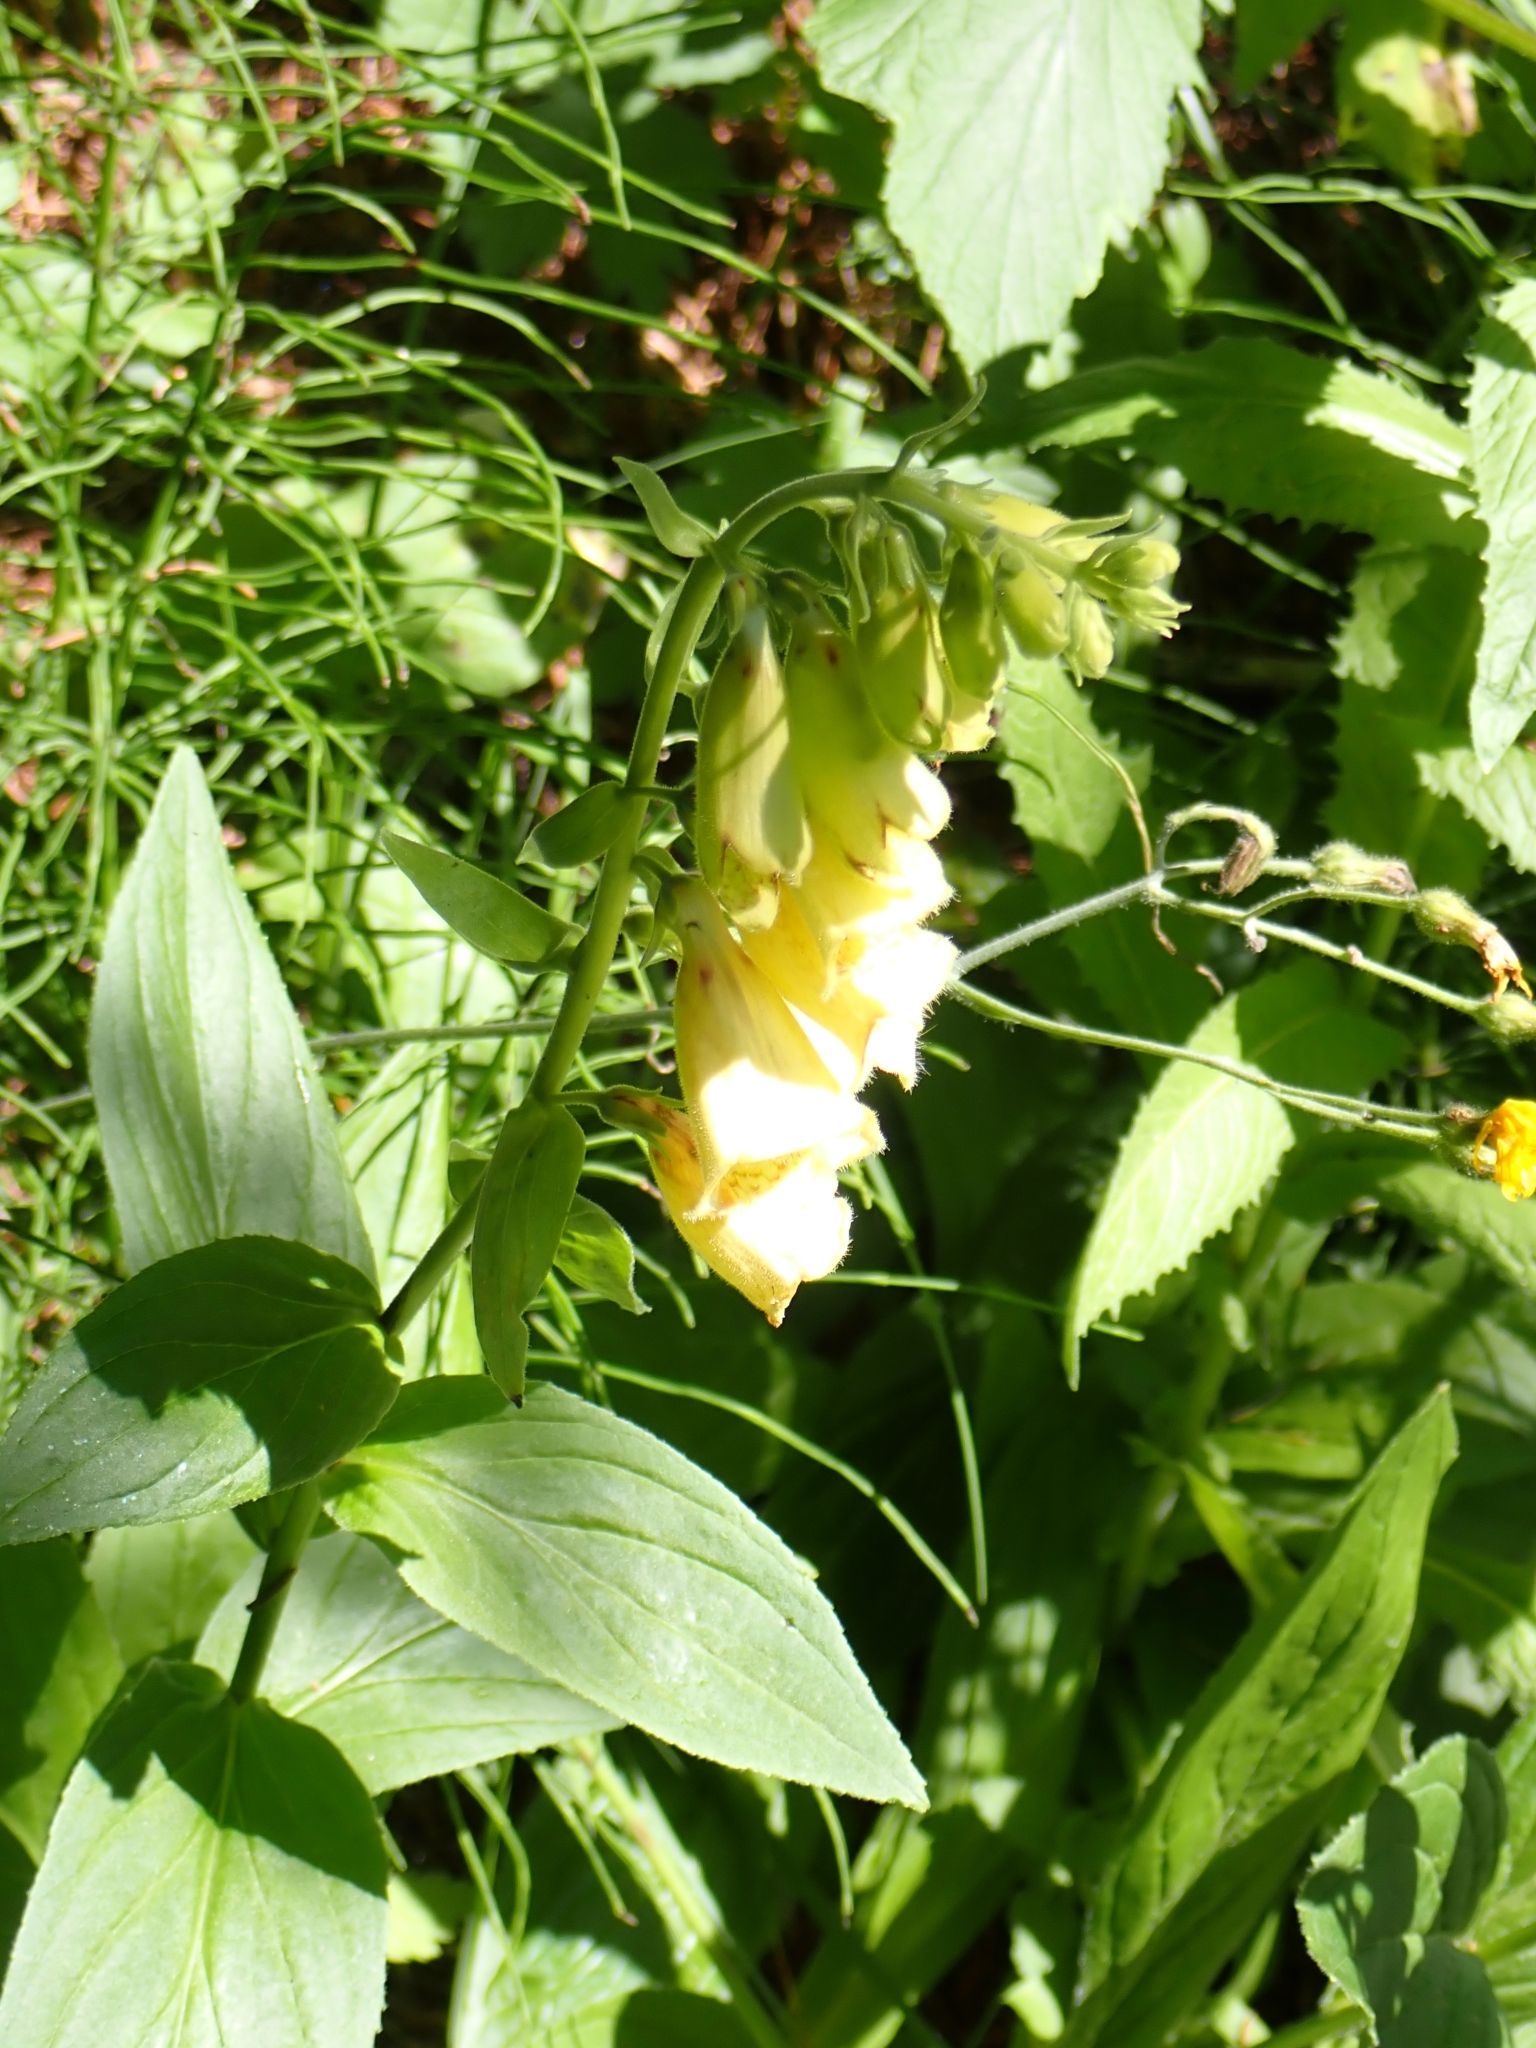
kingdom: Plantae
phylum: Tracheophyta
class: Magnoliopsida
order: Lamiales
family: Plantaginaceae
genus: Digitalis
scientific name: Digitalis grandiflora
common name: Yellow foxglove
